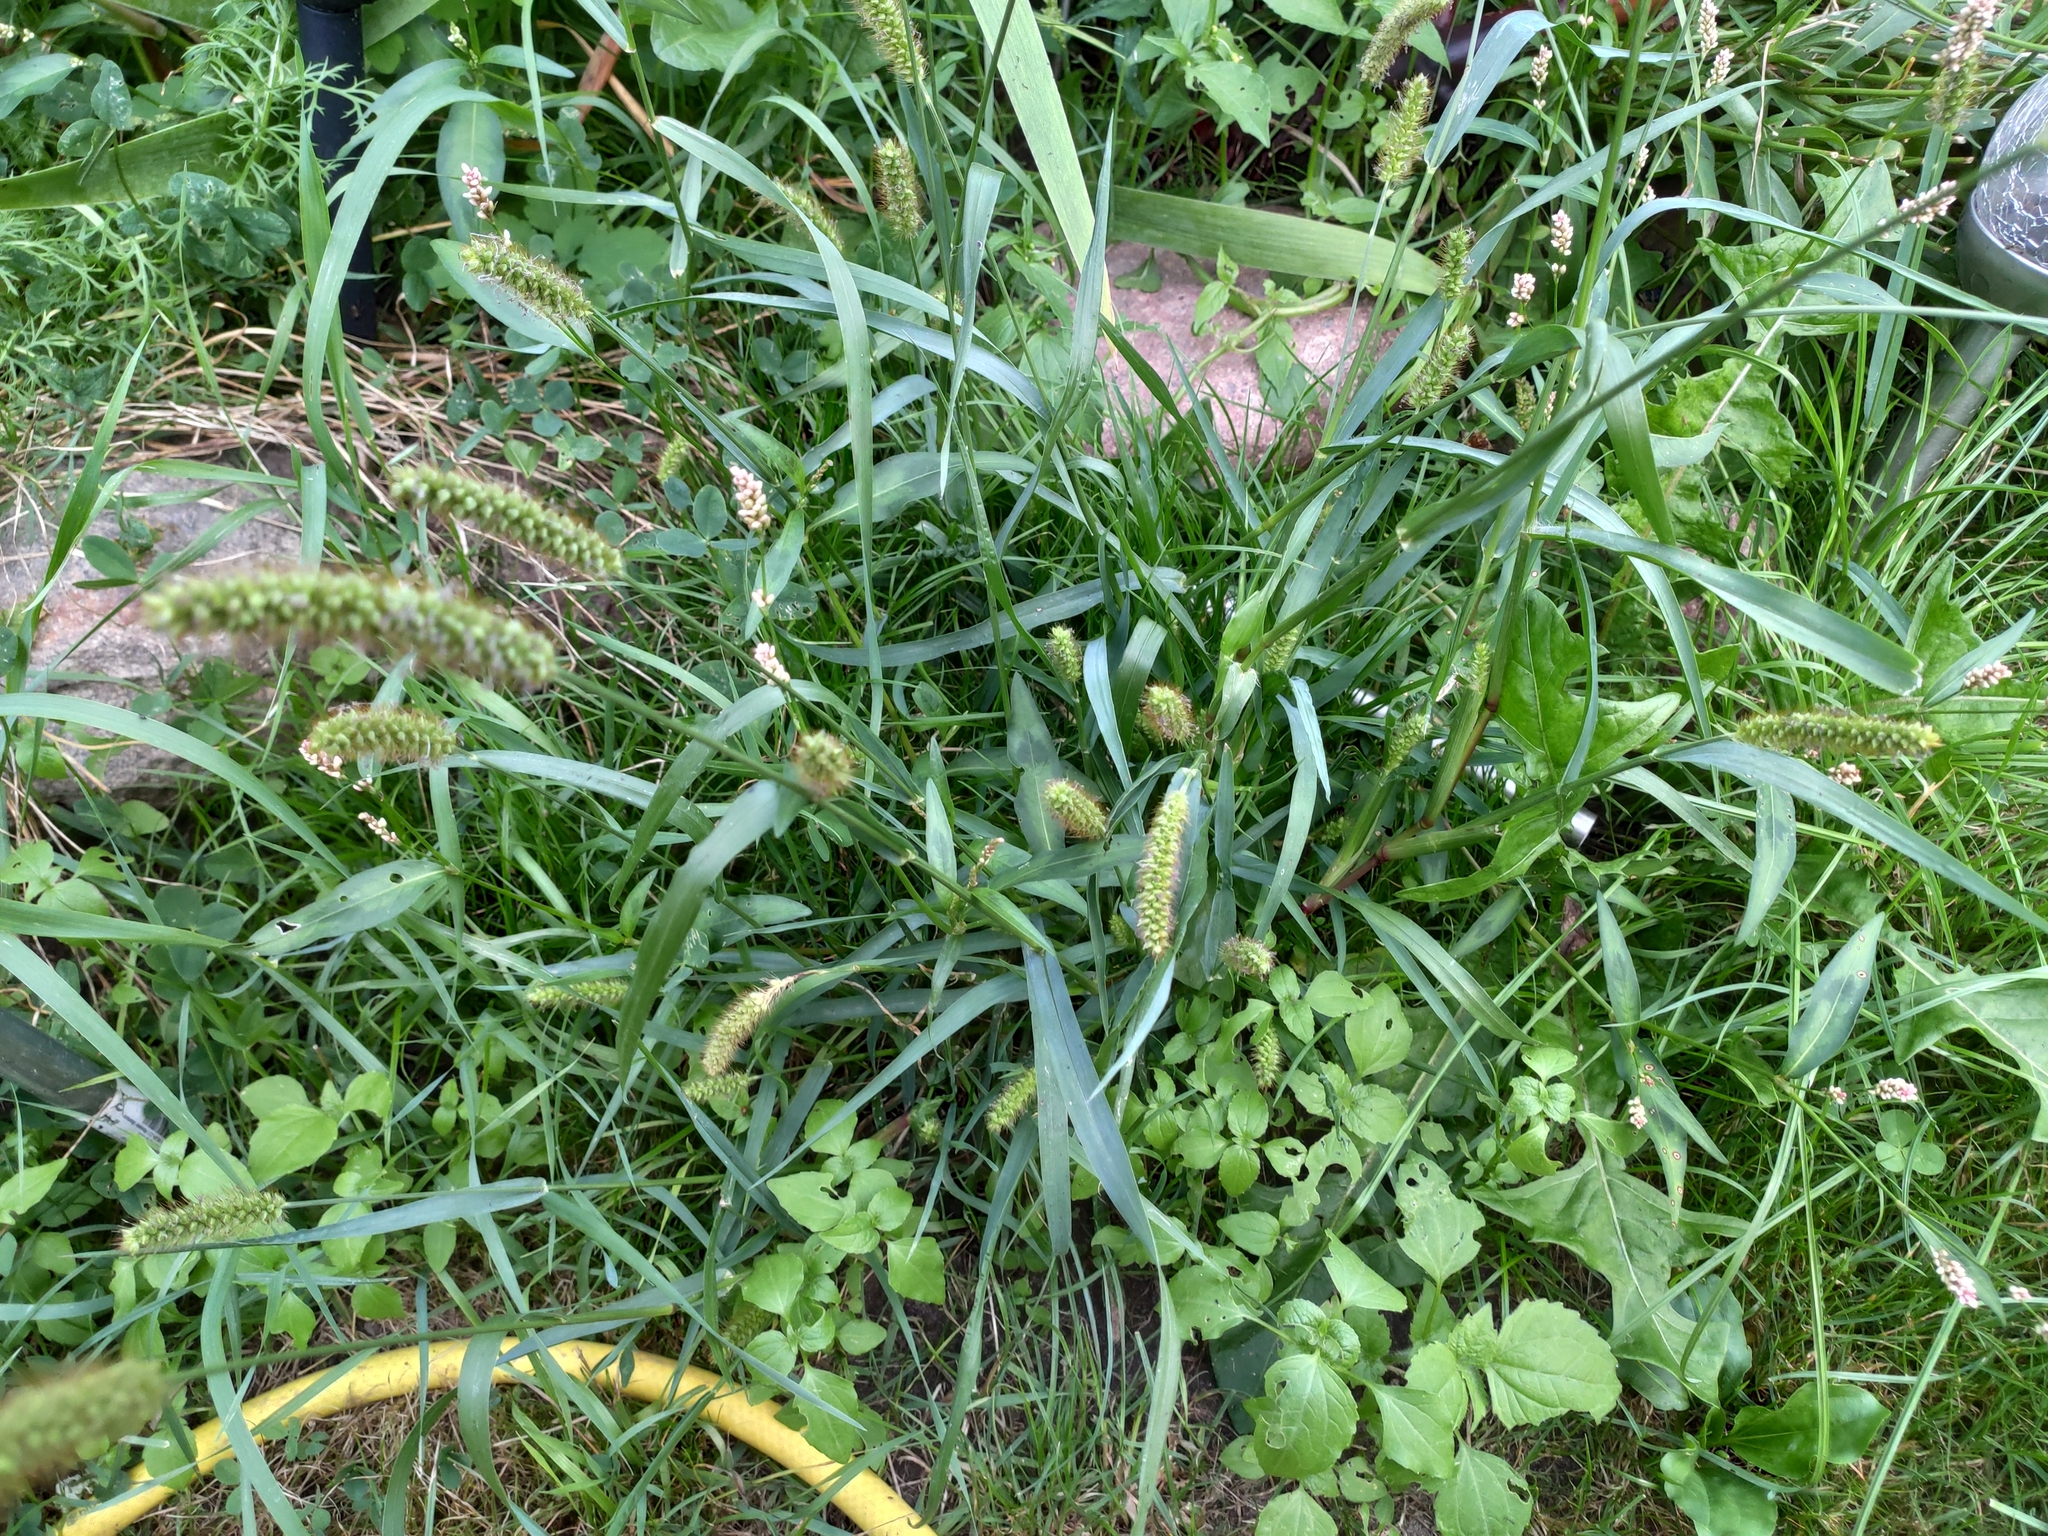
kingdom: Plantae
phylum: Tracheophyta
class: Liliopsida
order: Poales
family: Poaceae
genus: Setaria
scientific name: Setaria pumila
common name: Yellow bristle-grass
